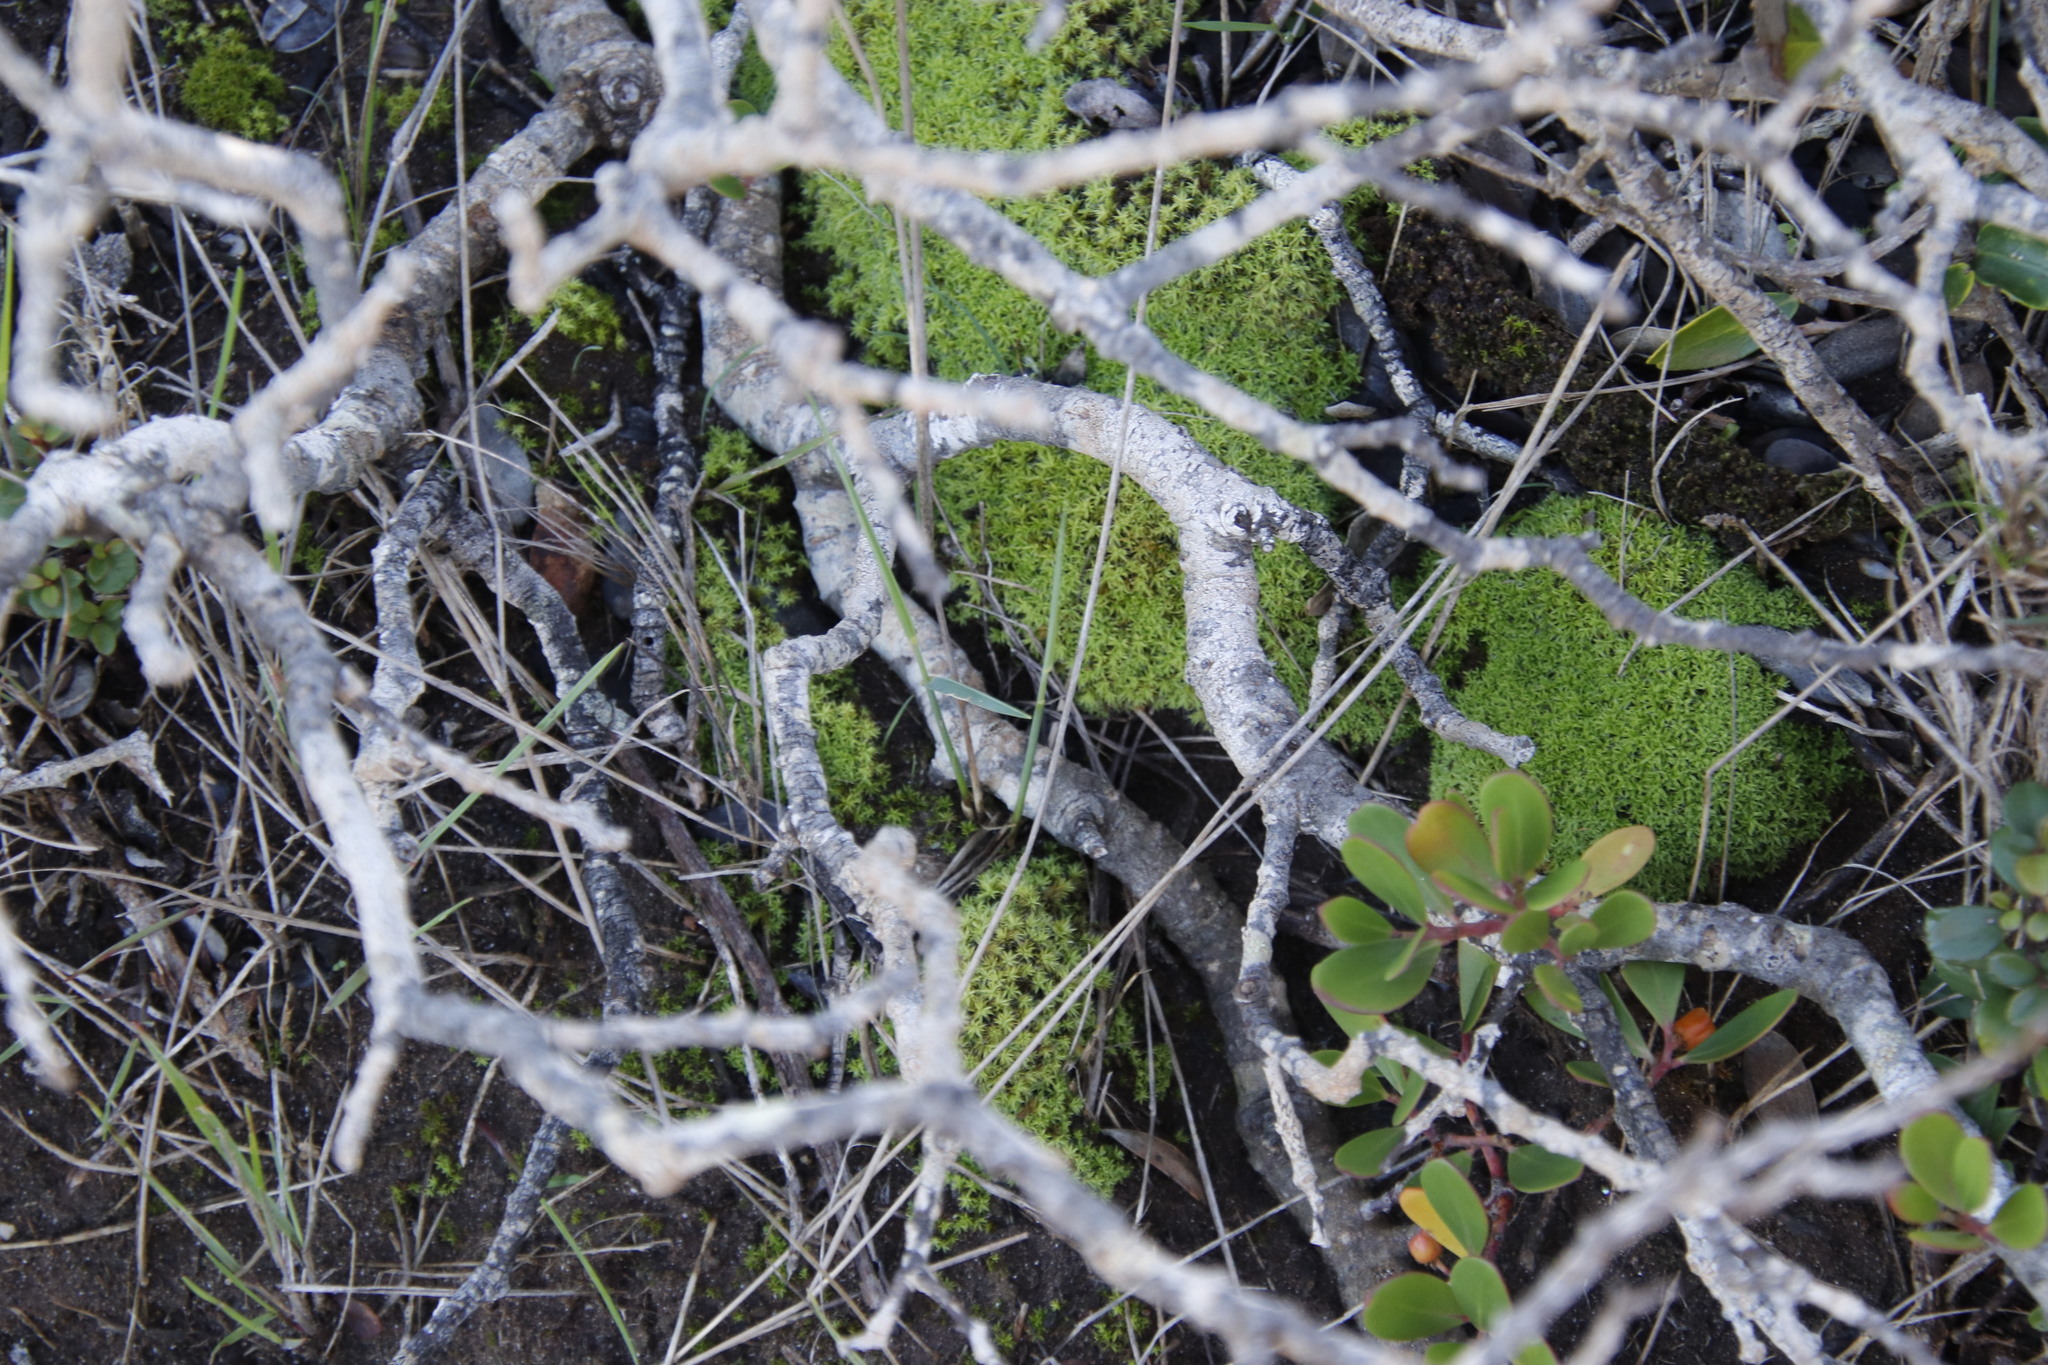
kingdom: Plantae
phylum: Bryophyta
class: Bryopsida
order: Pottiales
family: Pottiaceae
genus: Pseudocrossidium
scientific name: Pseudocrossidium crinitum
